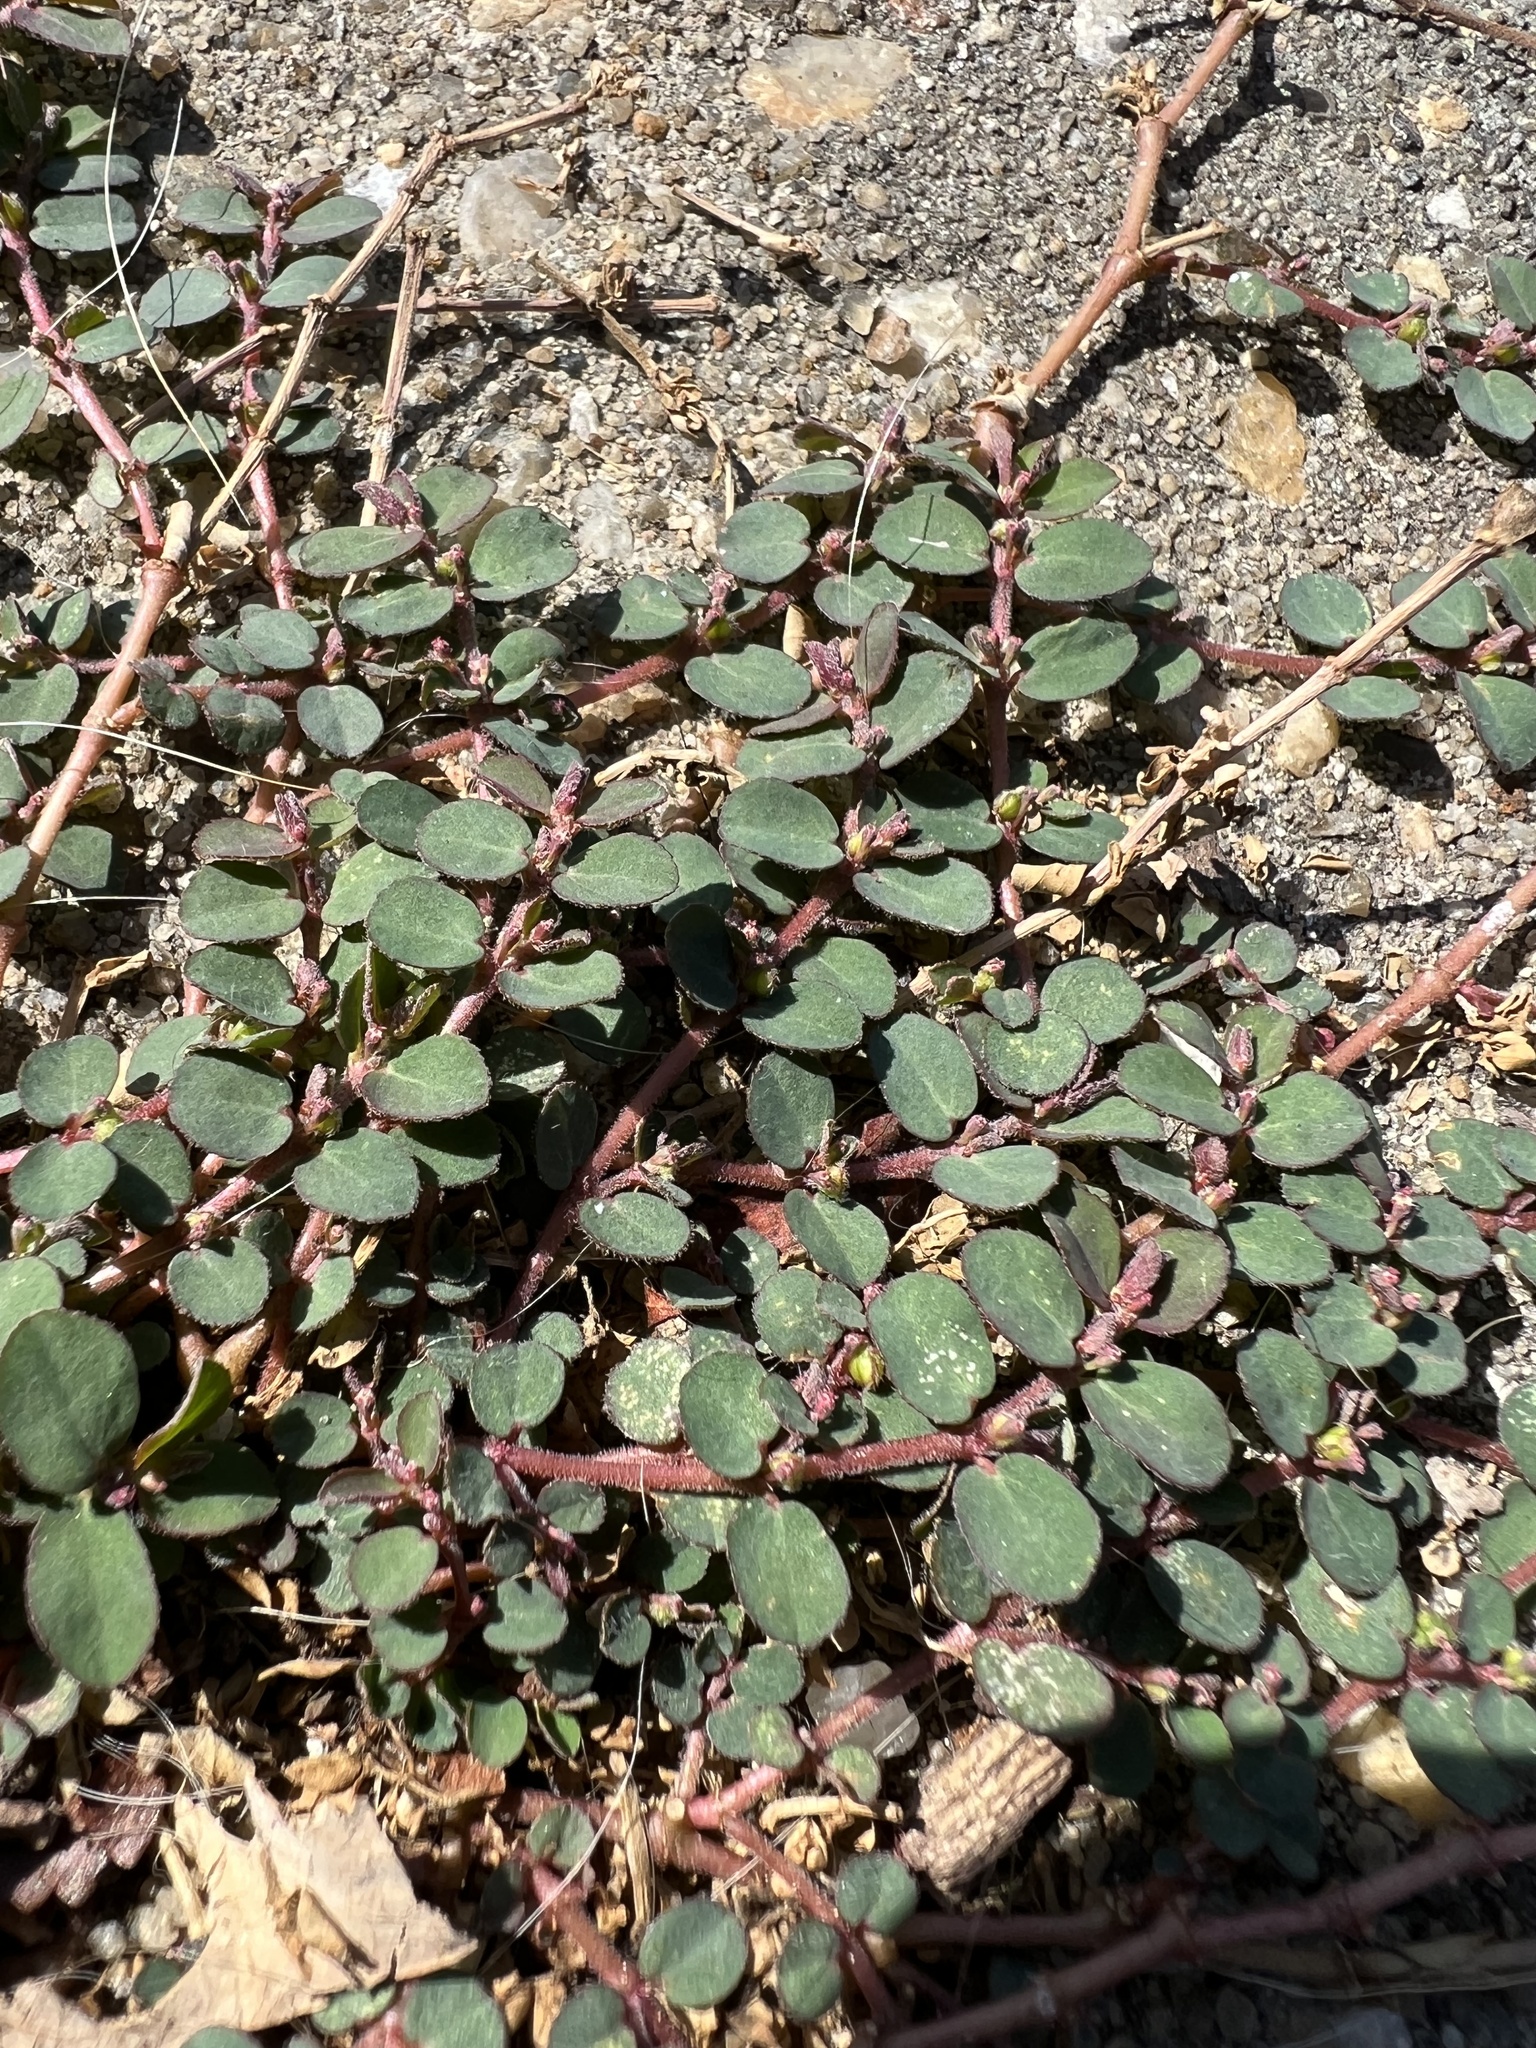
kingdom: Plantae
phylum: Tracheophyta
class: Magnoliopsida
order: Malpighiales
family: Euphorbiaceae
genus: Euphorbia
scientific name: Euphorbia prostrata
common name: Prostrate sandmat
